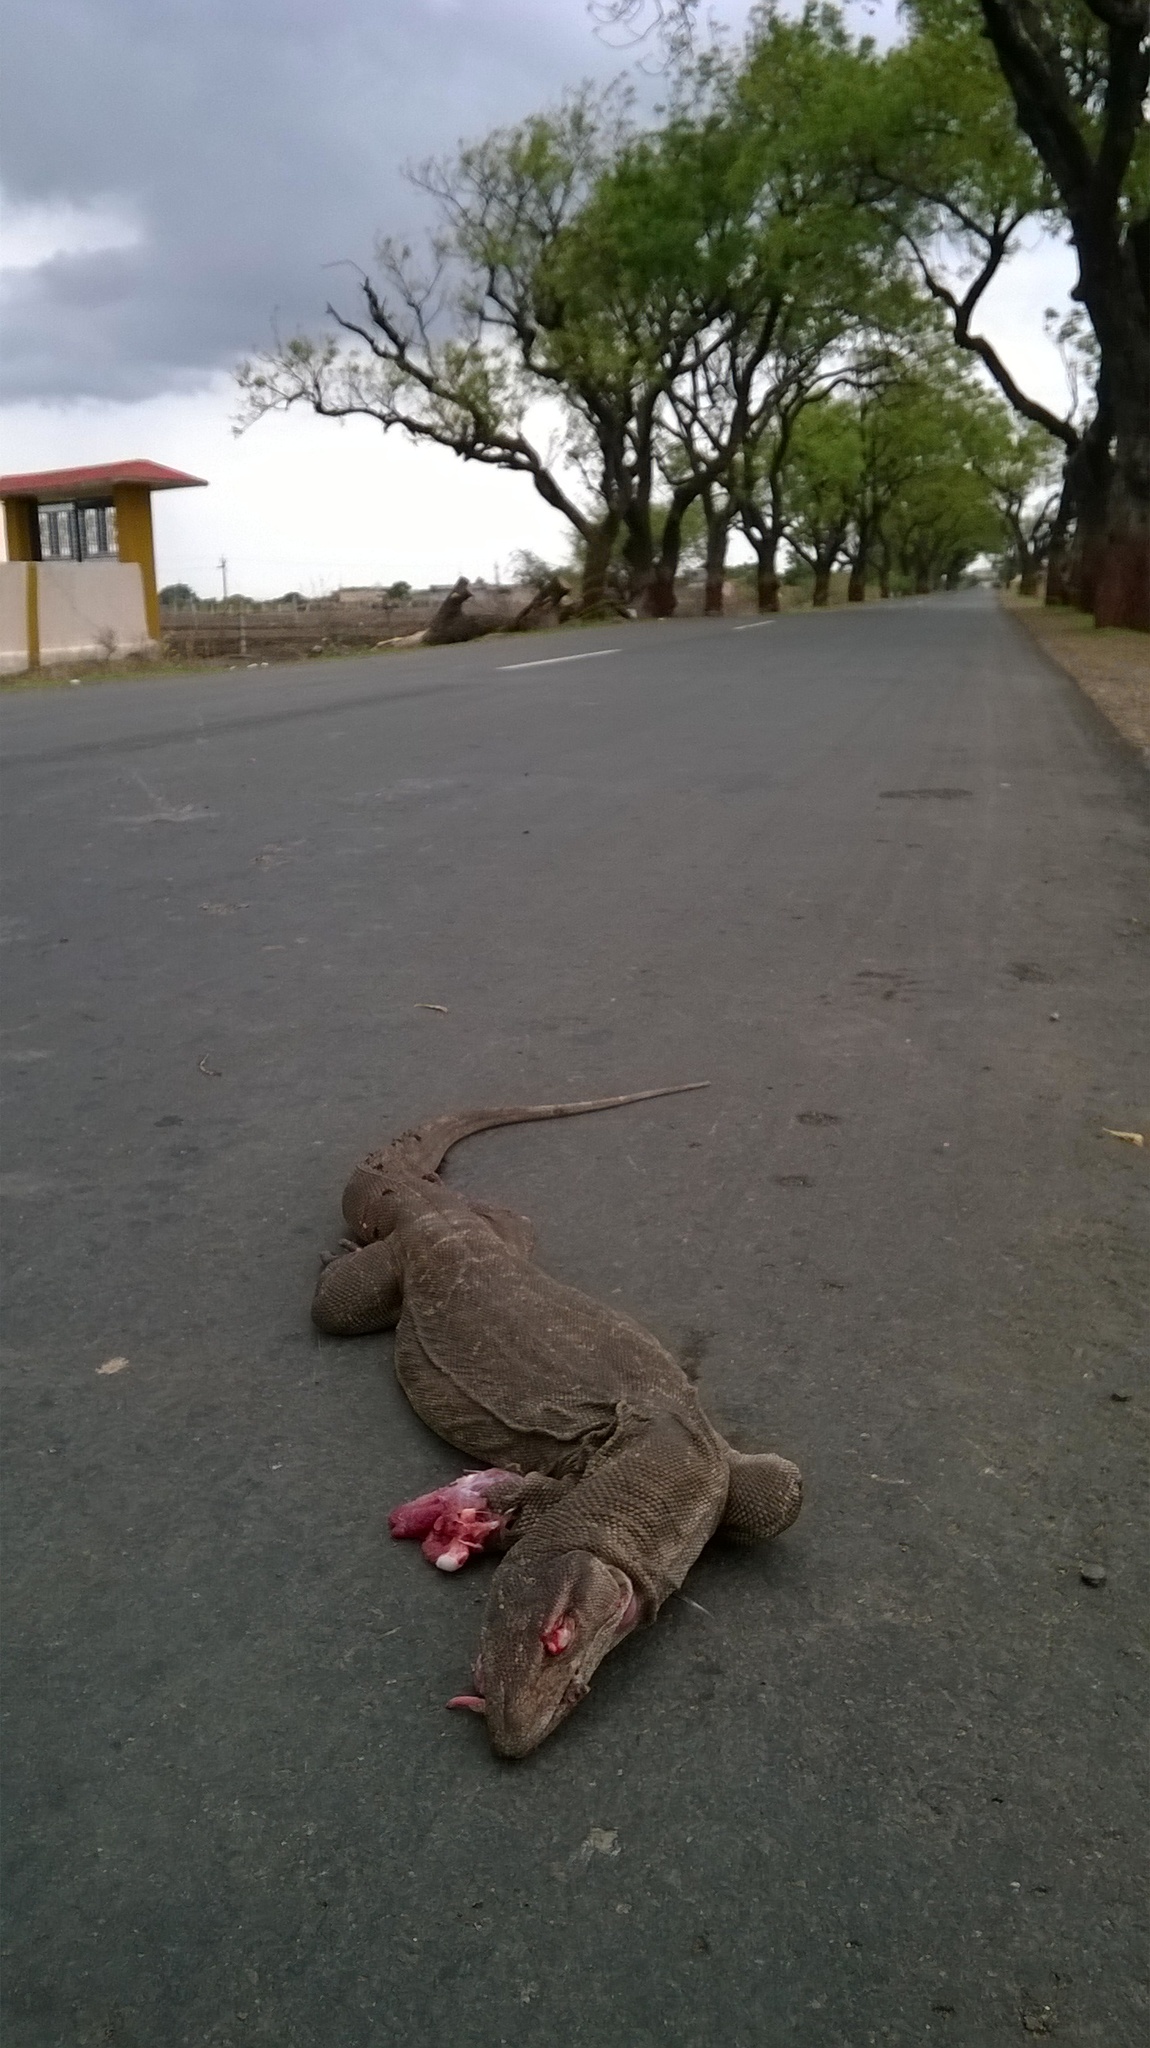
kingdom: Animalia
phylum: Chordata
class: Squamata
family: Varanidae
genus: Varanus
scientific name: Varanus bengalensis
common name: Bengal monitor
